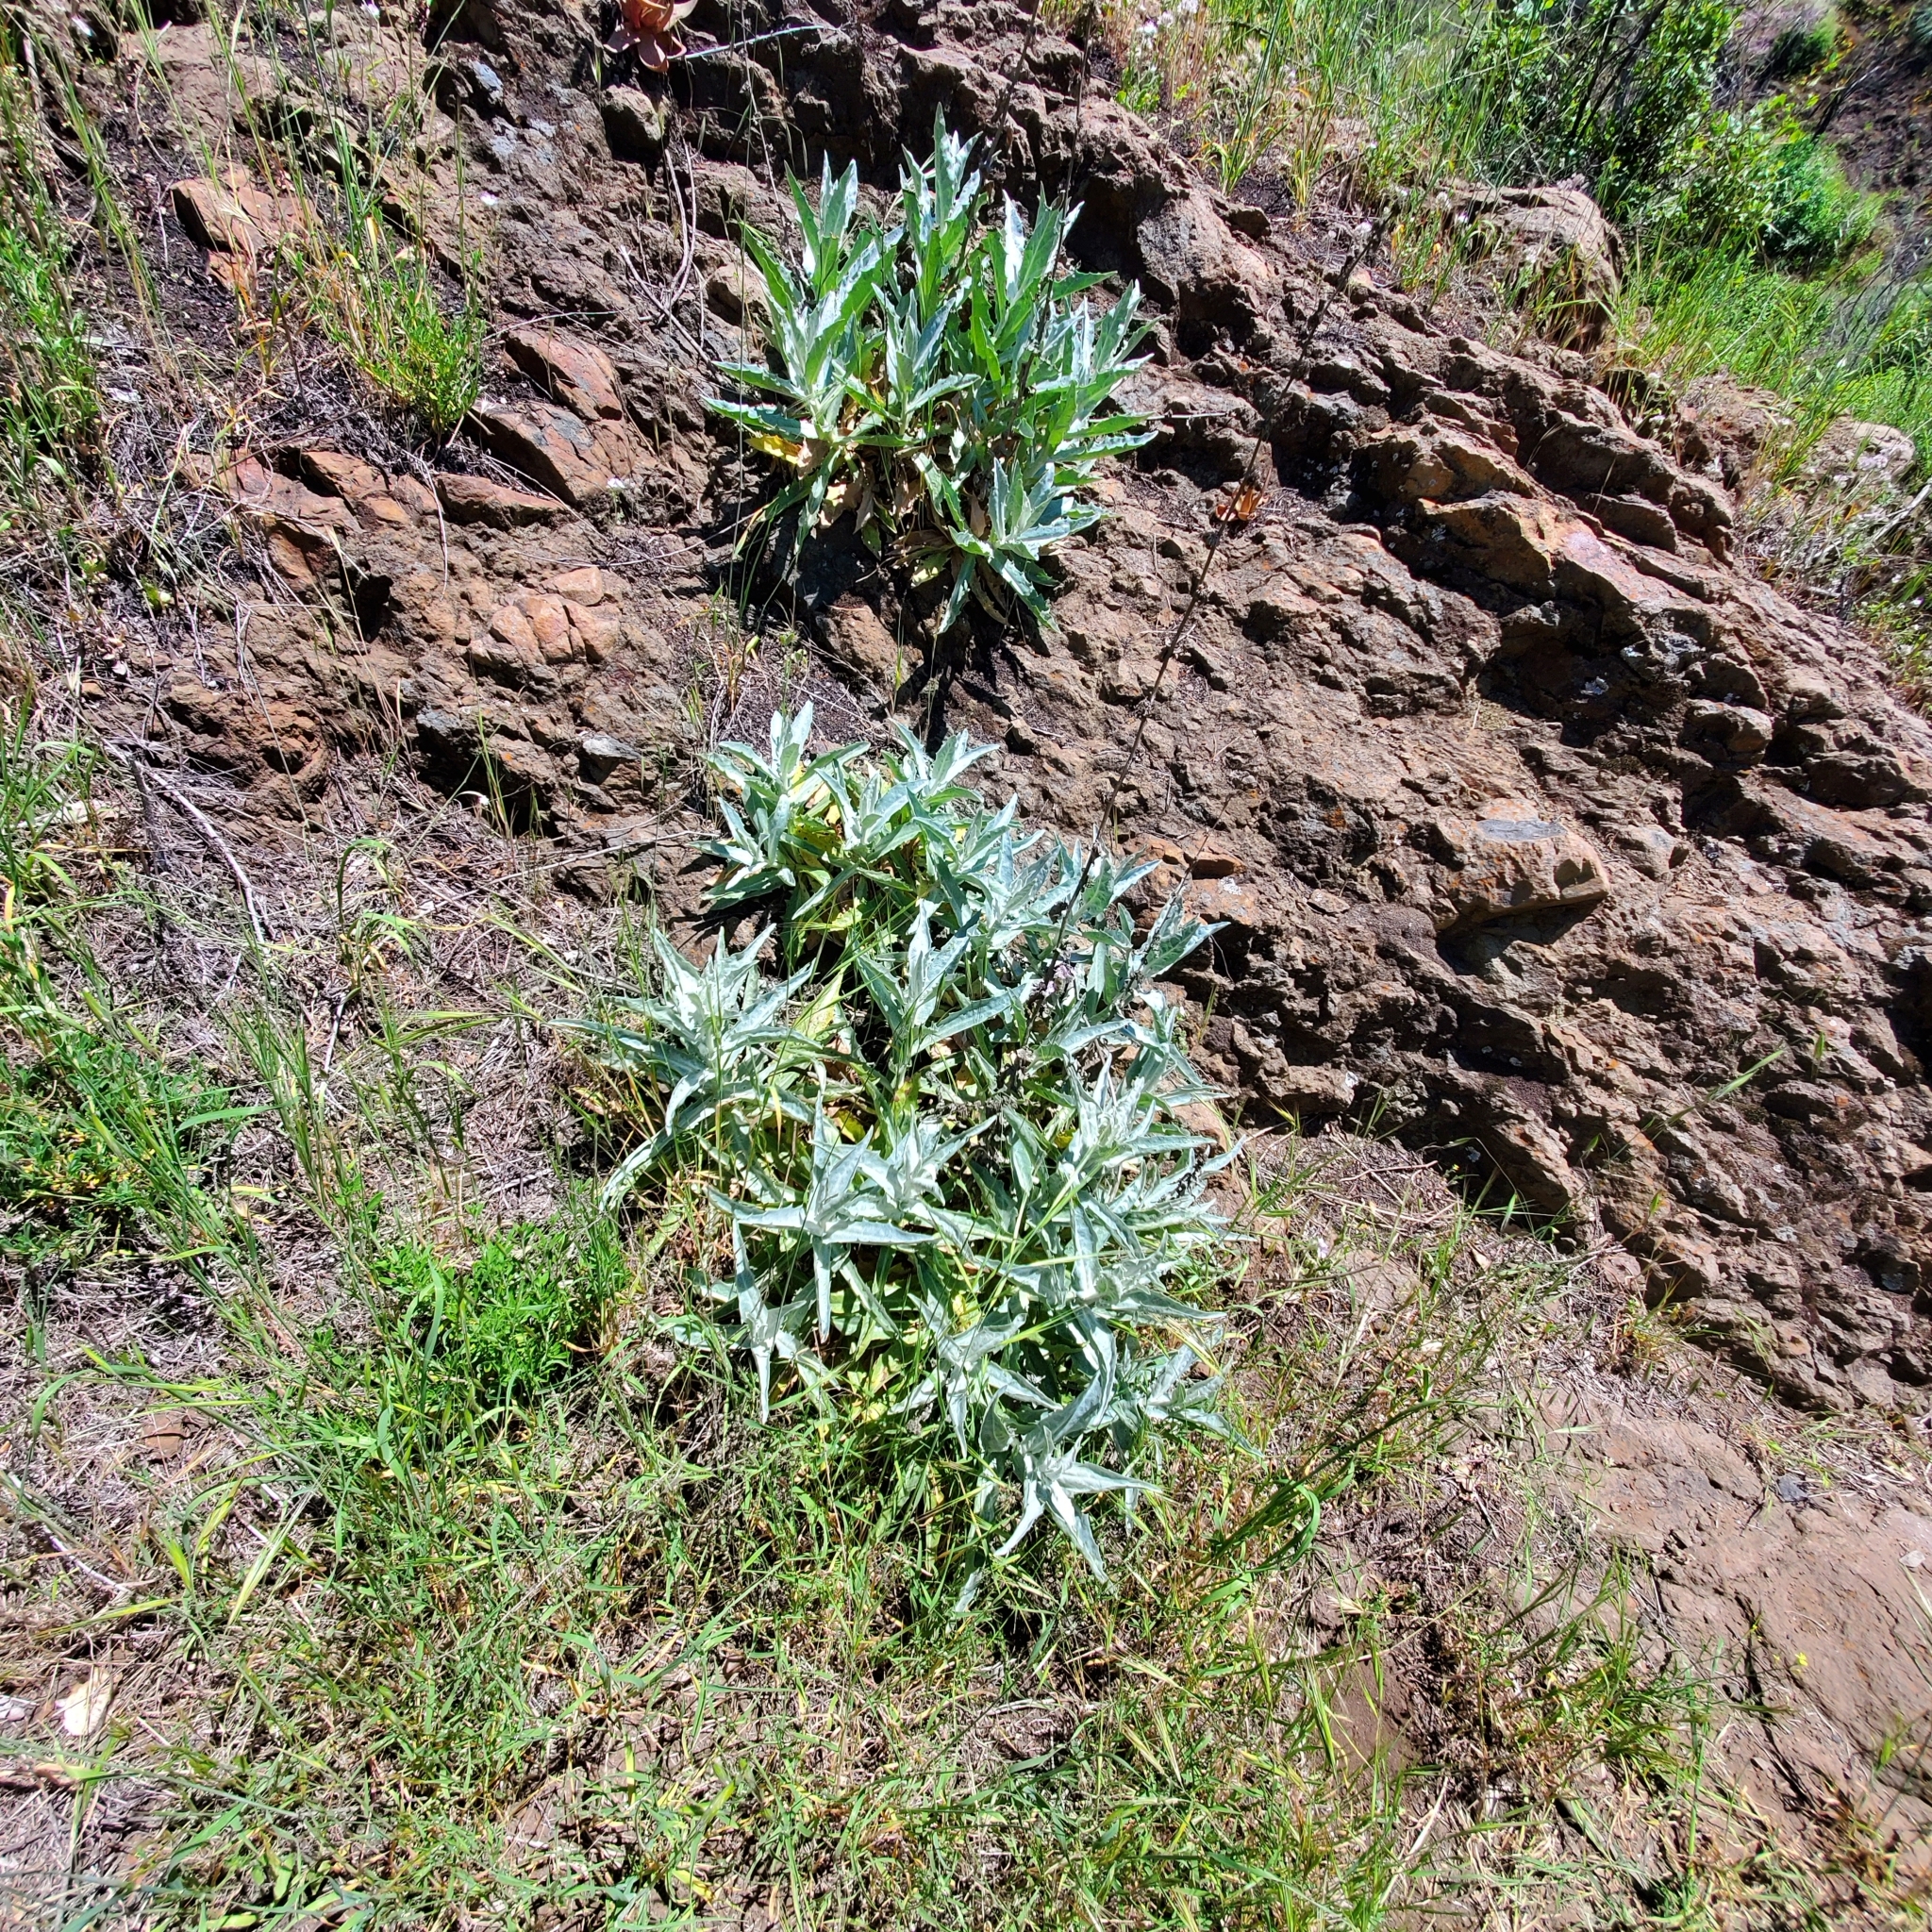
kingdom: Plantae
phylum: Tracheophyta
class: Magnoliopsida
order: Asterales
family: Asteraceae
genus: Stephanomeria
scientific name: Stephanomeria cichoriacea
